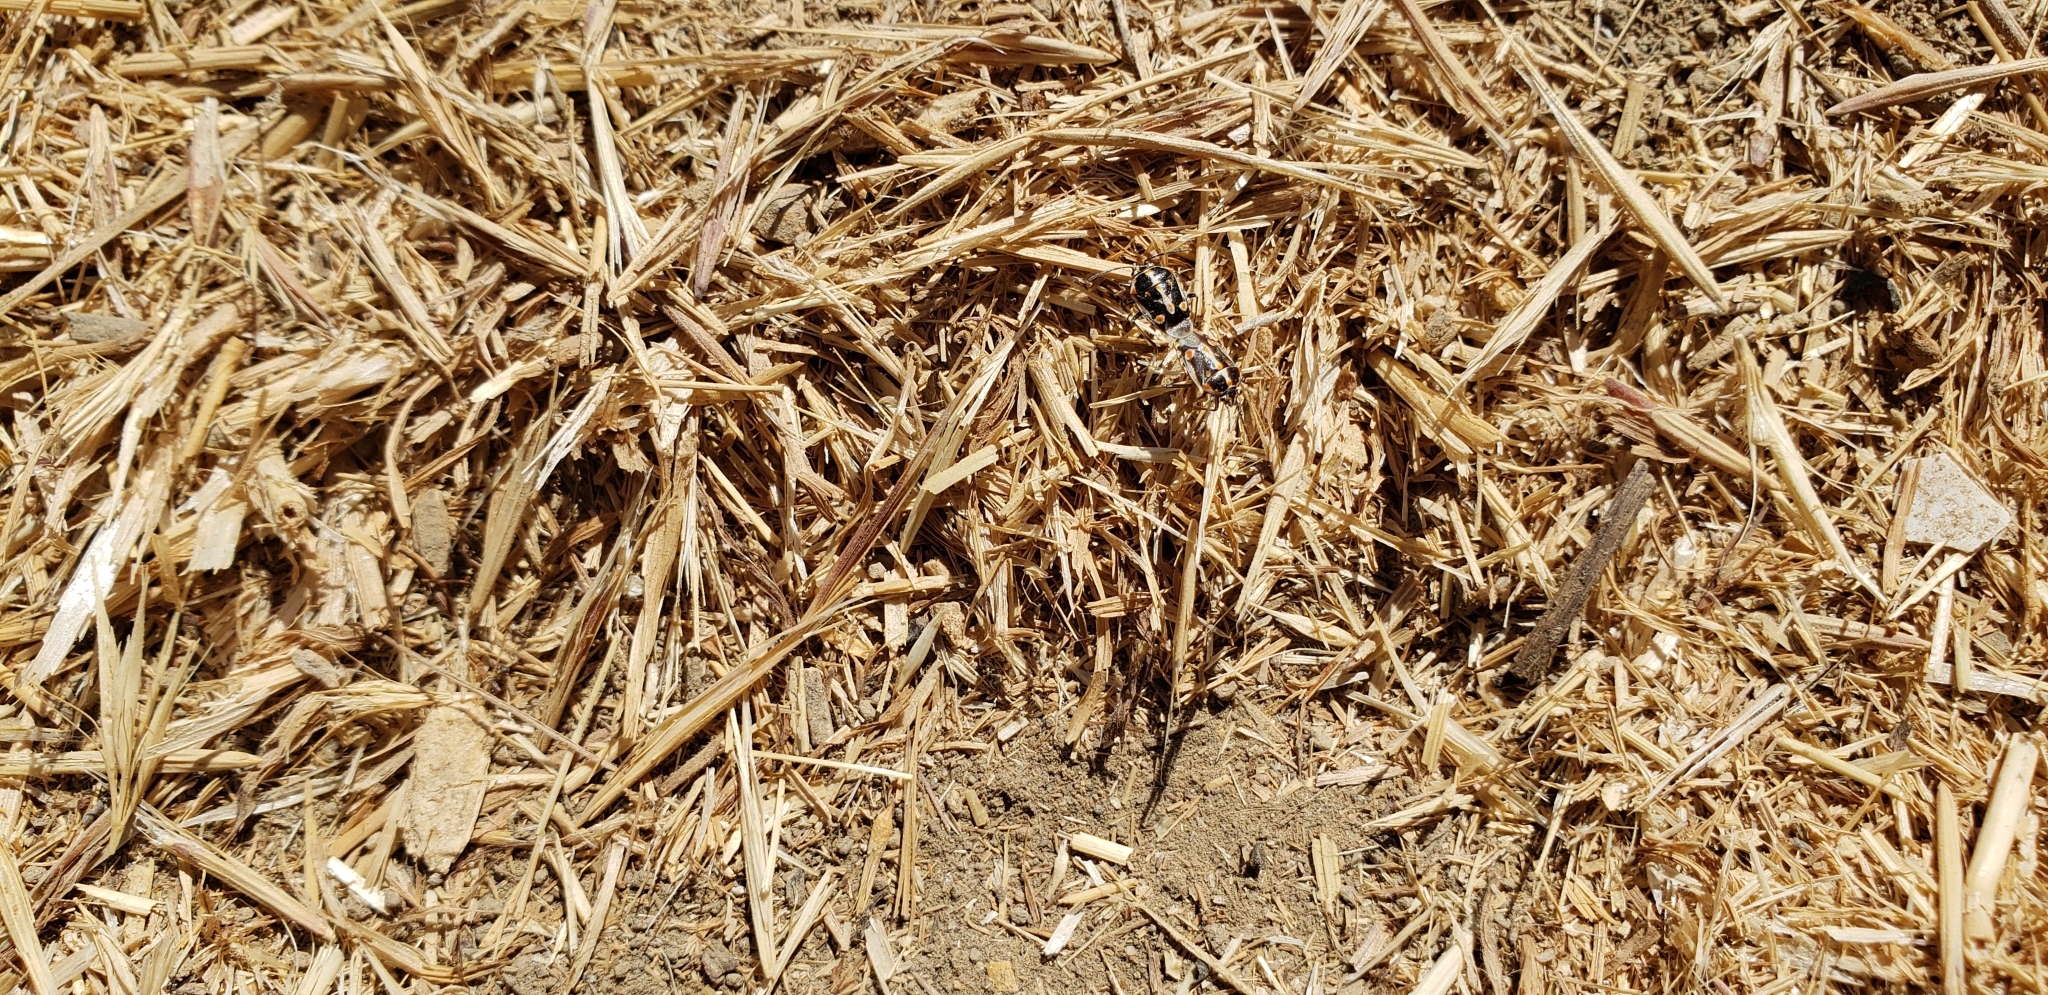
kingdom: Animalia
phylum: Arthropoda
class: Insecta
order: Hemiptera
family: Pentatomidae
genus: Bagrada
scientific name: Bagrada hilaris
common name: Bagrada bug
